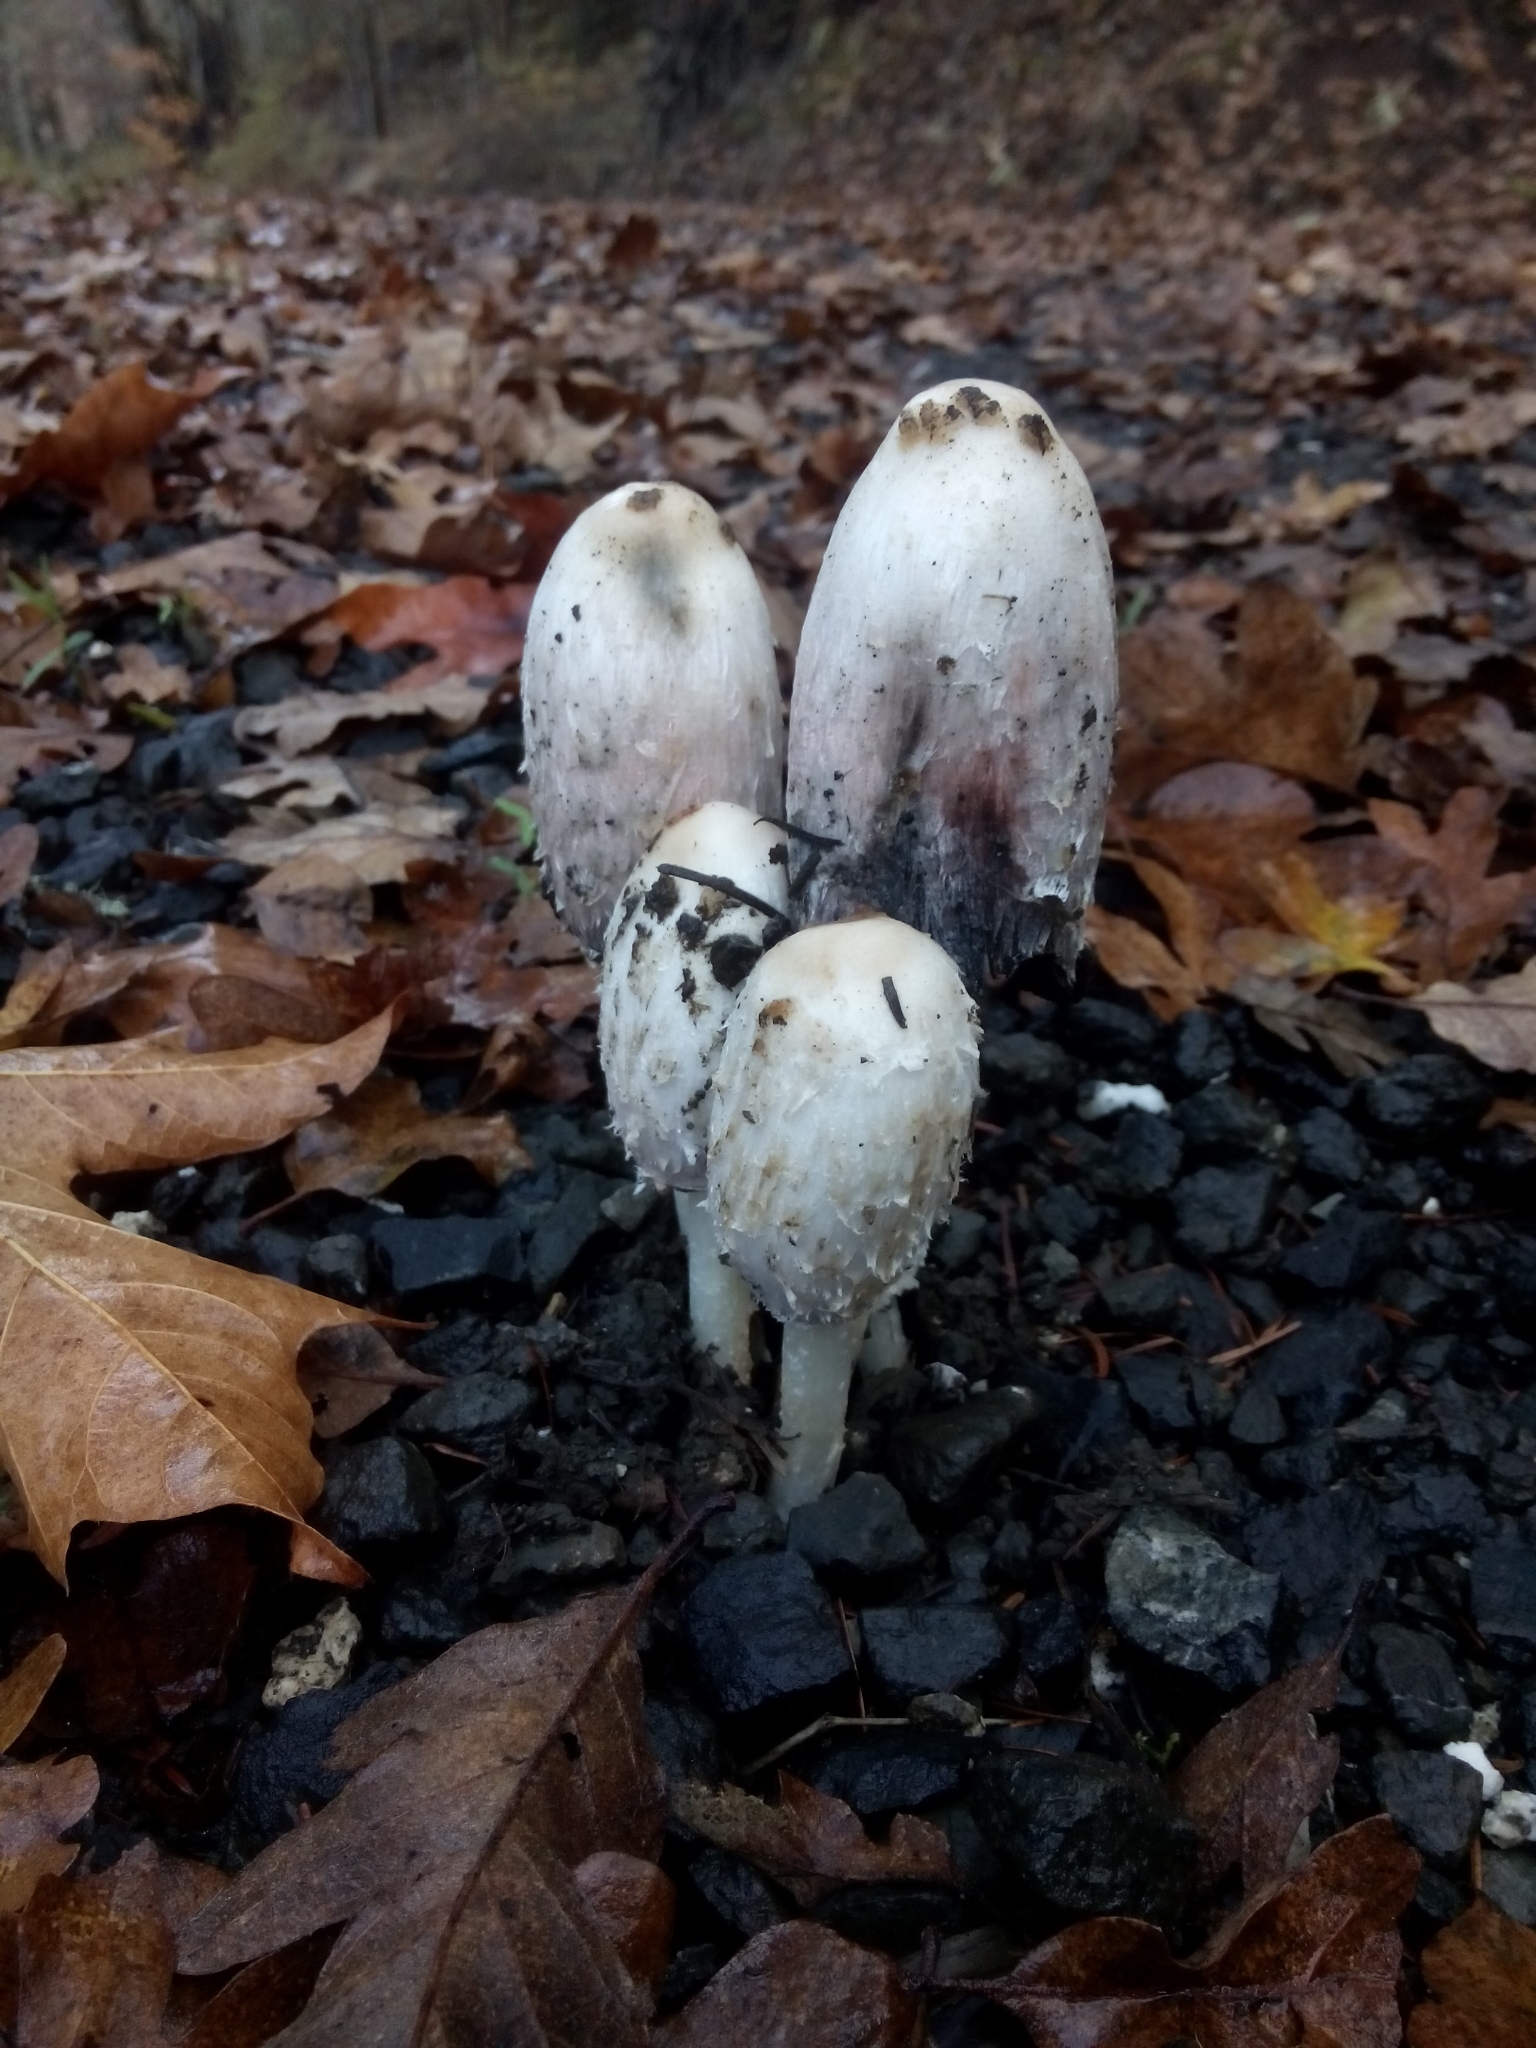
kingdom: Fungi
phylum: Basidiomycota
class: Agaricomycetes
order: Agaricales
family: Agaricaceae
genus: Coprinus
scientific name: Coprinus comatus
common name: Lawyer's wig
